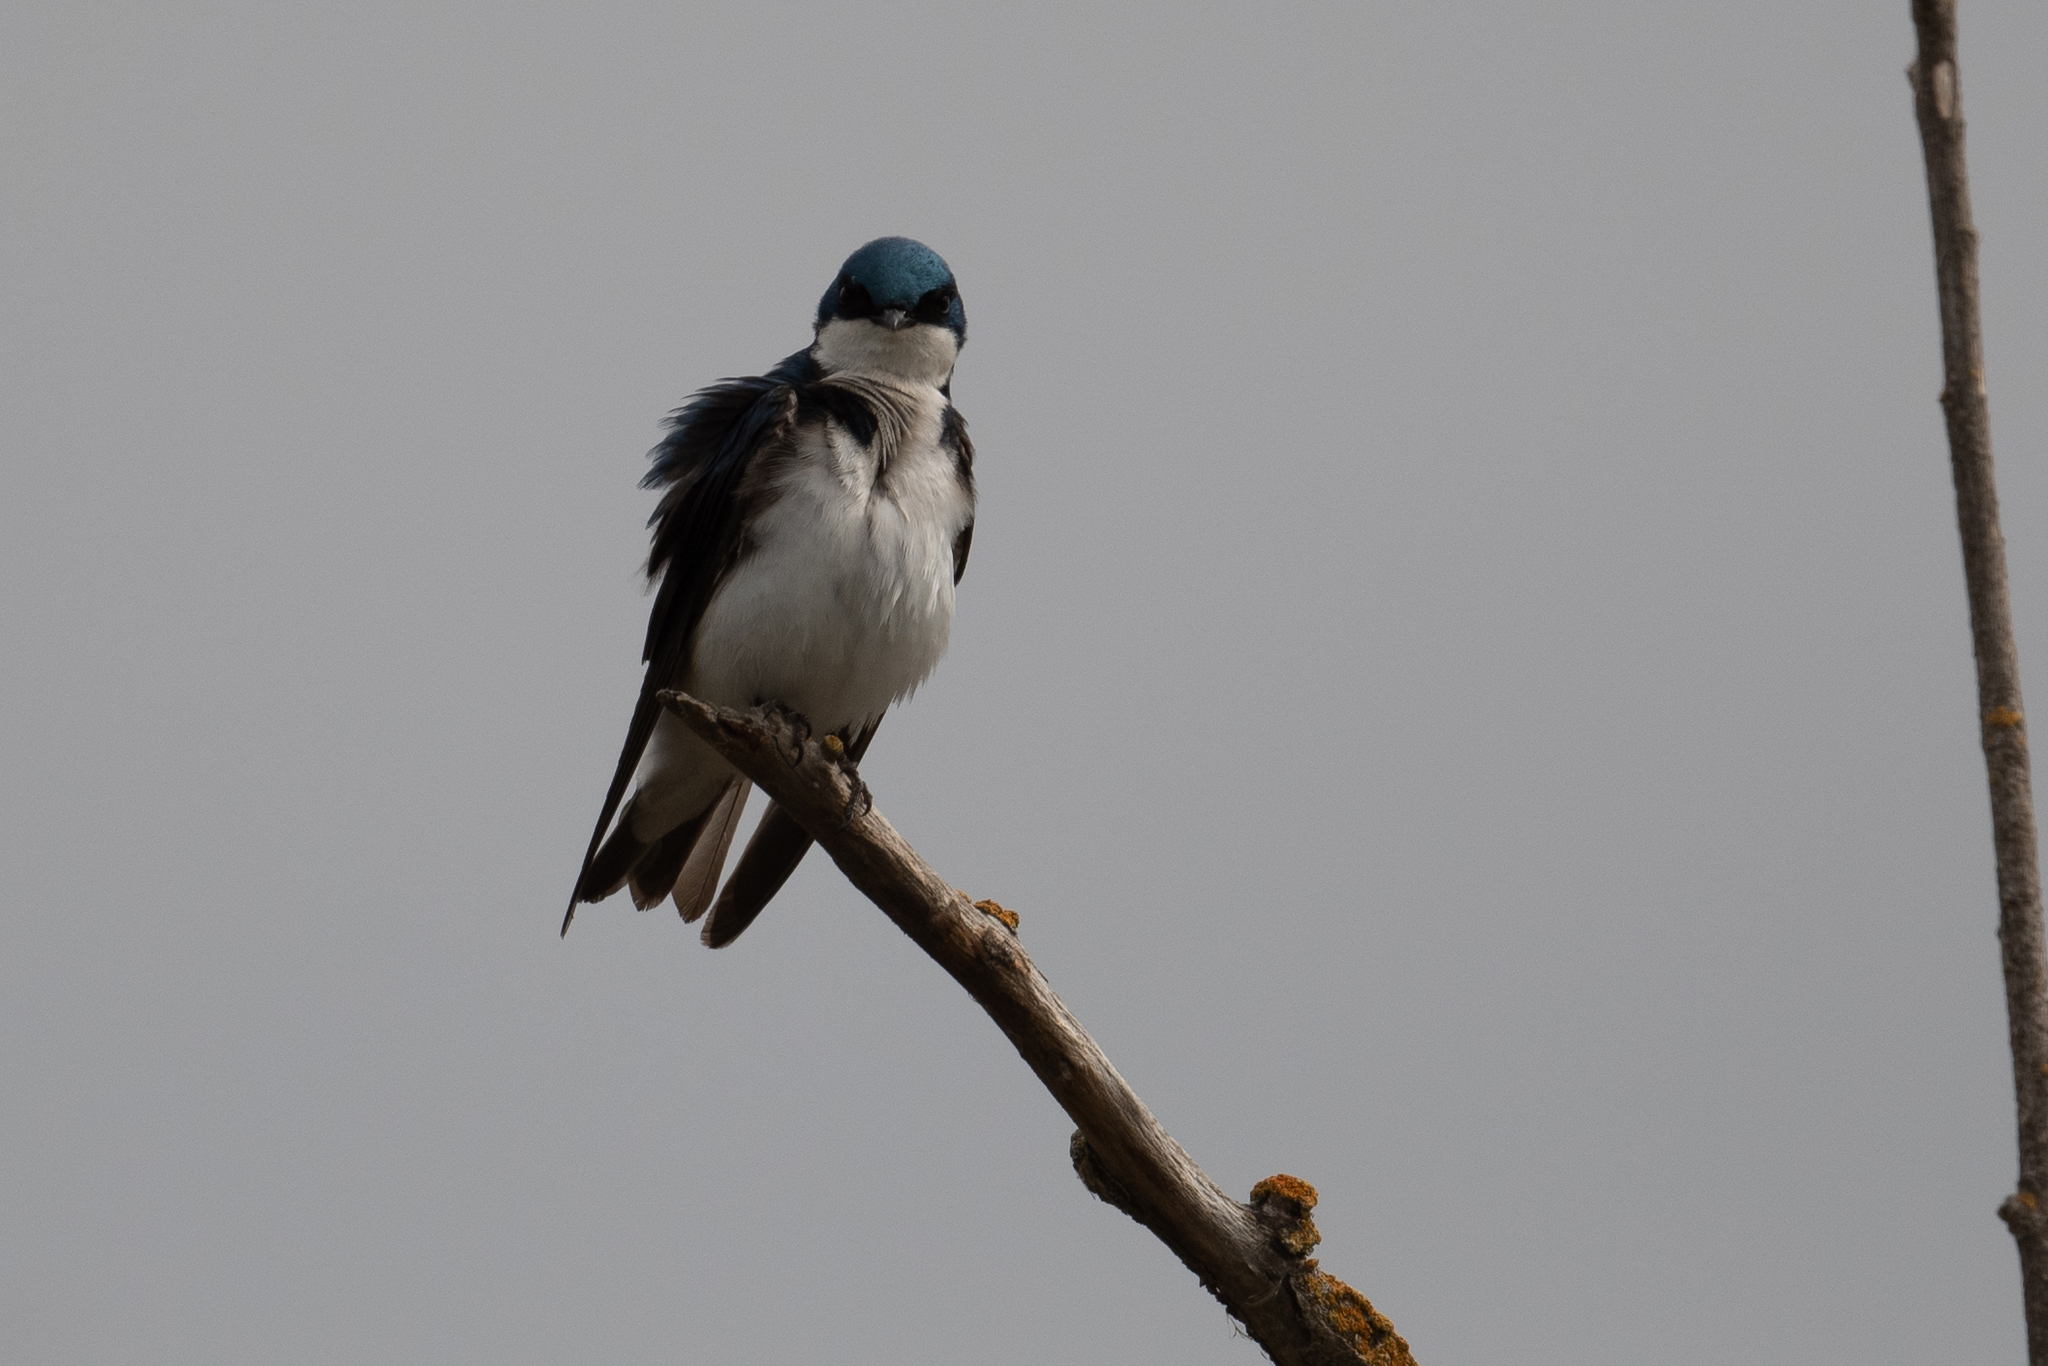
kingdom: Animalia
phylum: Chordata
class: Aves
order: Passeriformes
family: Hirundinidae
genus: Tachycineta
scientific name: Tachycineta bicolor
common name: Tree swallow
